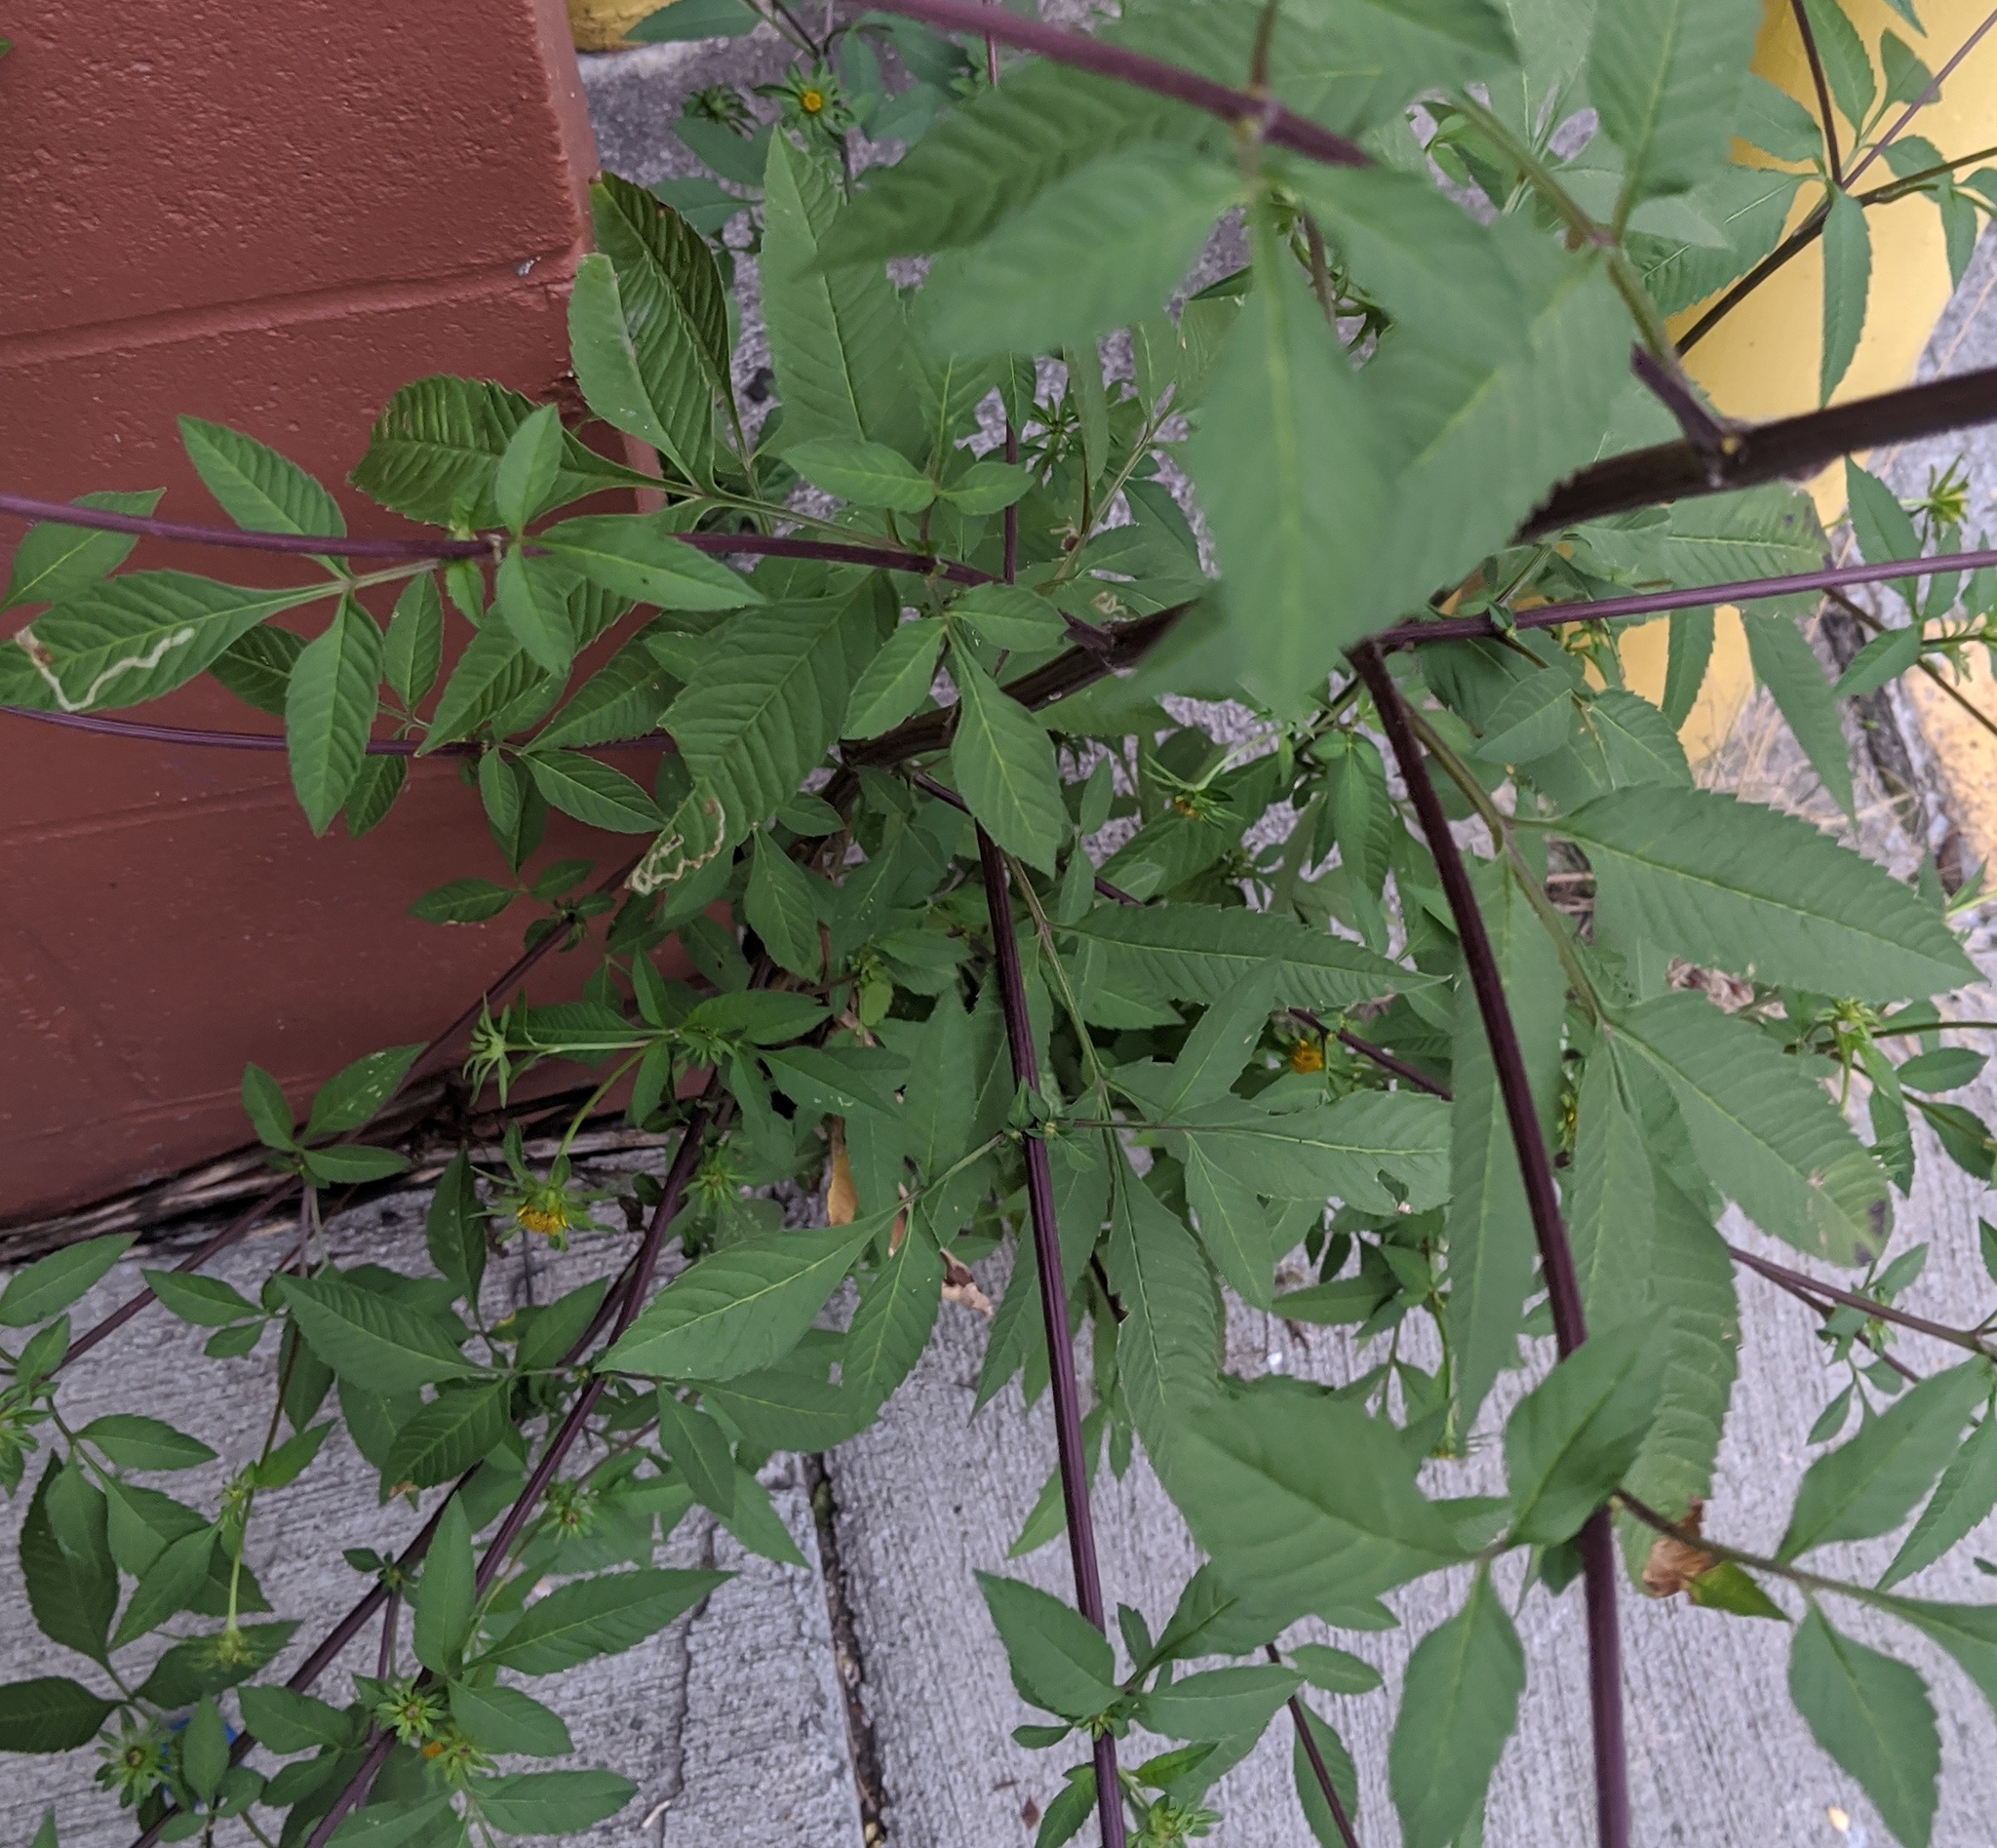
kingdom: Plantae
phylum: Tracheophyta
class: Magnoliopsida
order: Asterales
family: Asteraceae
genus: Bidens
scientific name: Bidens vulgata
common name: Tall beggarticks
